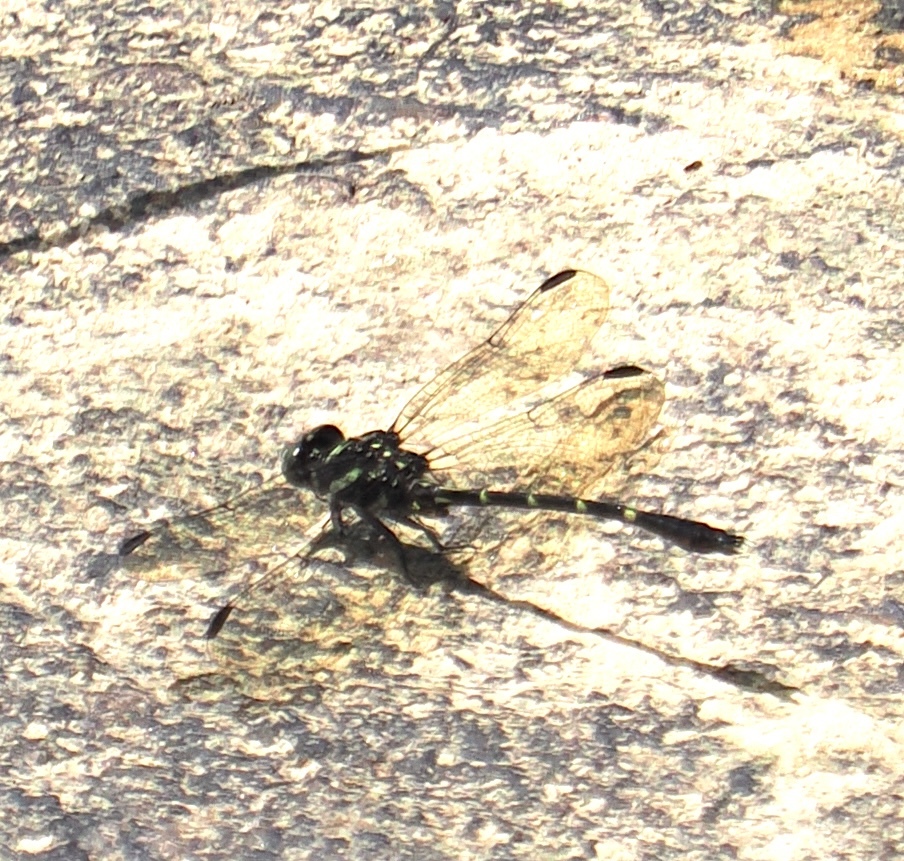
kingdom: Animalia
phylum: Arthropoda
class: Insecta
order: Odonata
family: Gomphidae
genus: Progomphus
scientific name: Progomphus complicatus
